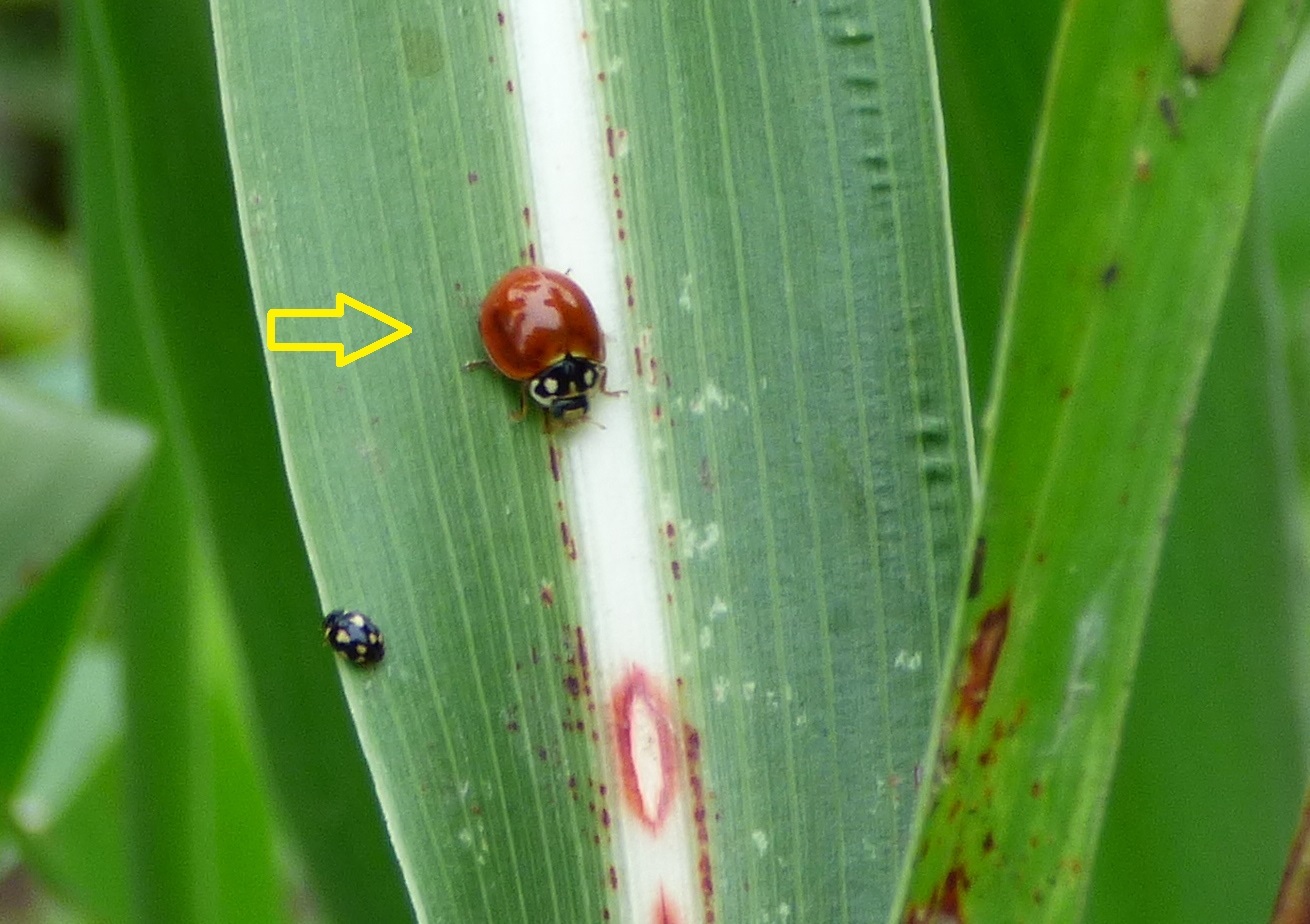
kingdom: Animalia
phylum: Arthropoda
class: Insecta
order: Coleoptera
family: Coccinellidae
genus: Cycloneda
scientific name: Cycloneda sanguinea
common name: Ladybird beetle
